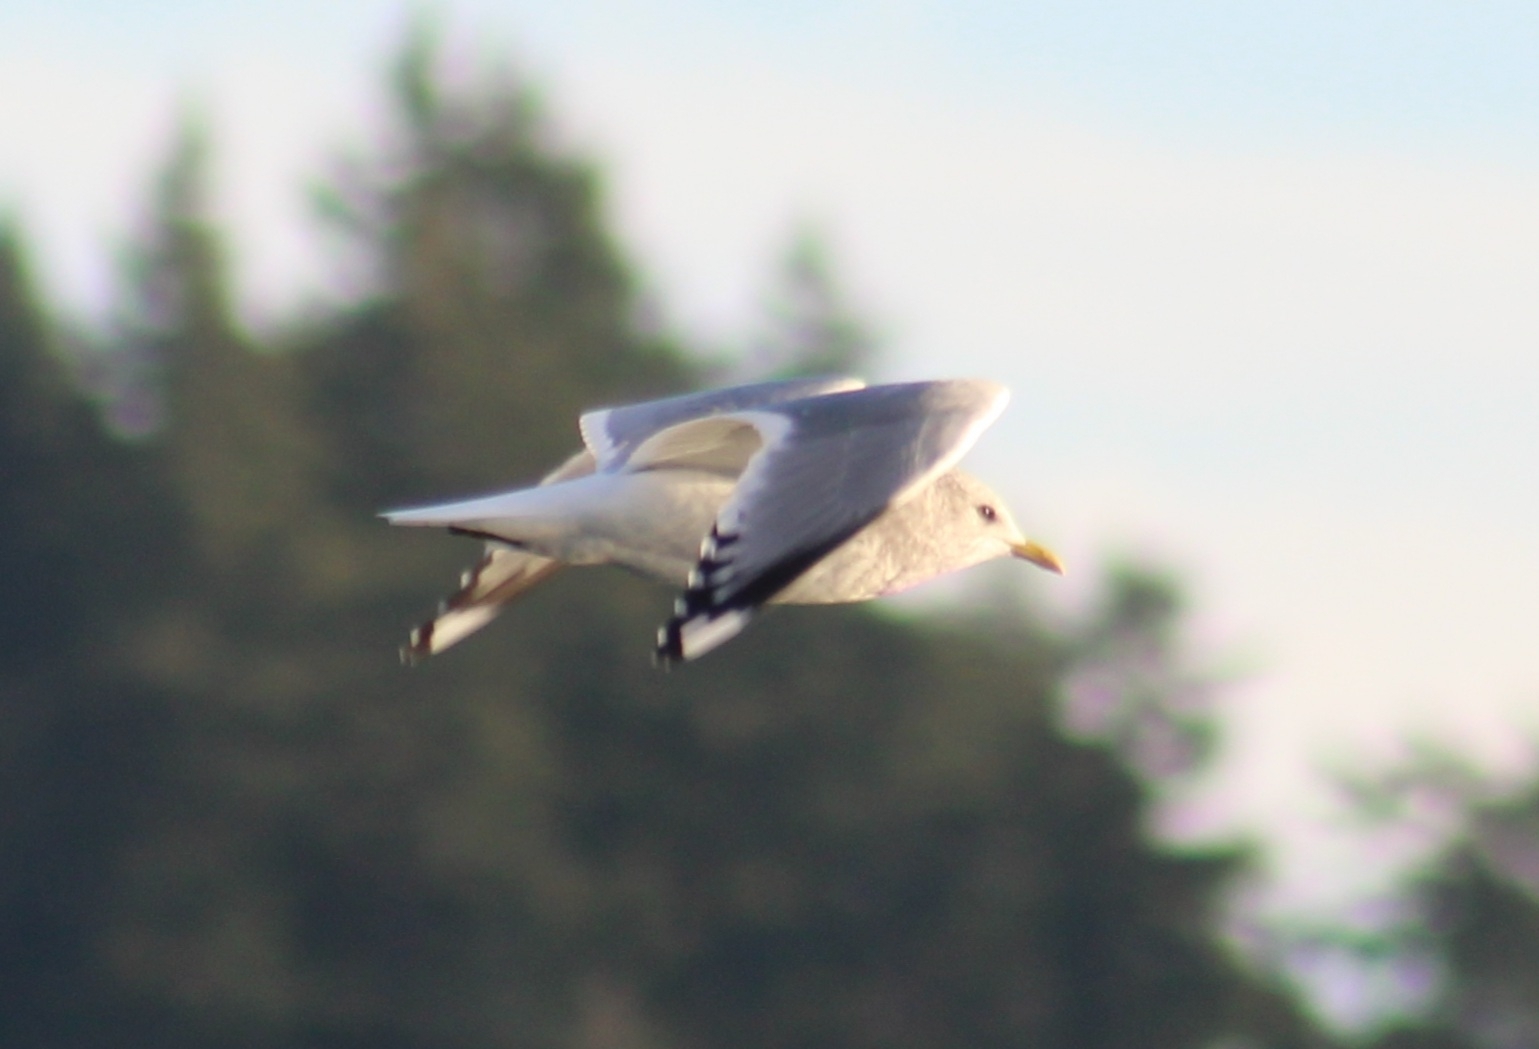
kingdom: Animalia
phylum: Chordata
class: Aves
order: Charadriiformes
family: Laridae
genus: Larus
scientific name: Larus brachyrhynchus
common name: Short-billed gull
